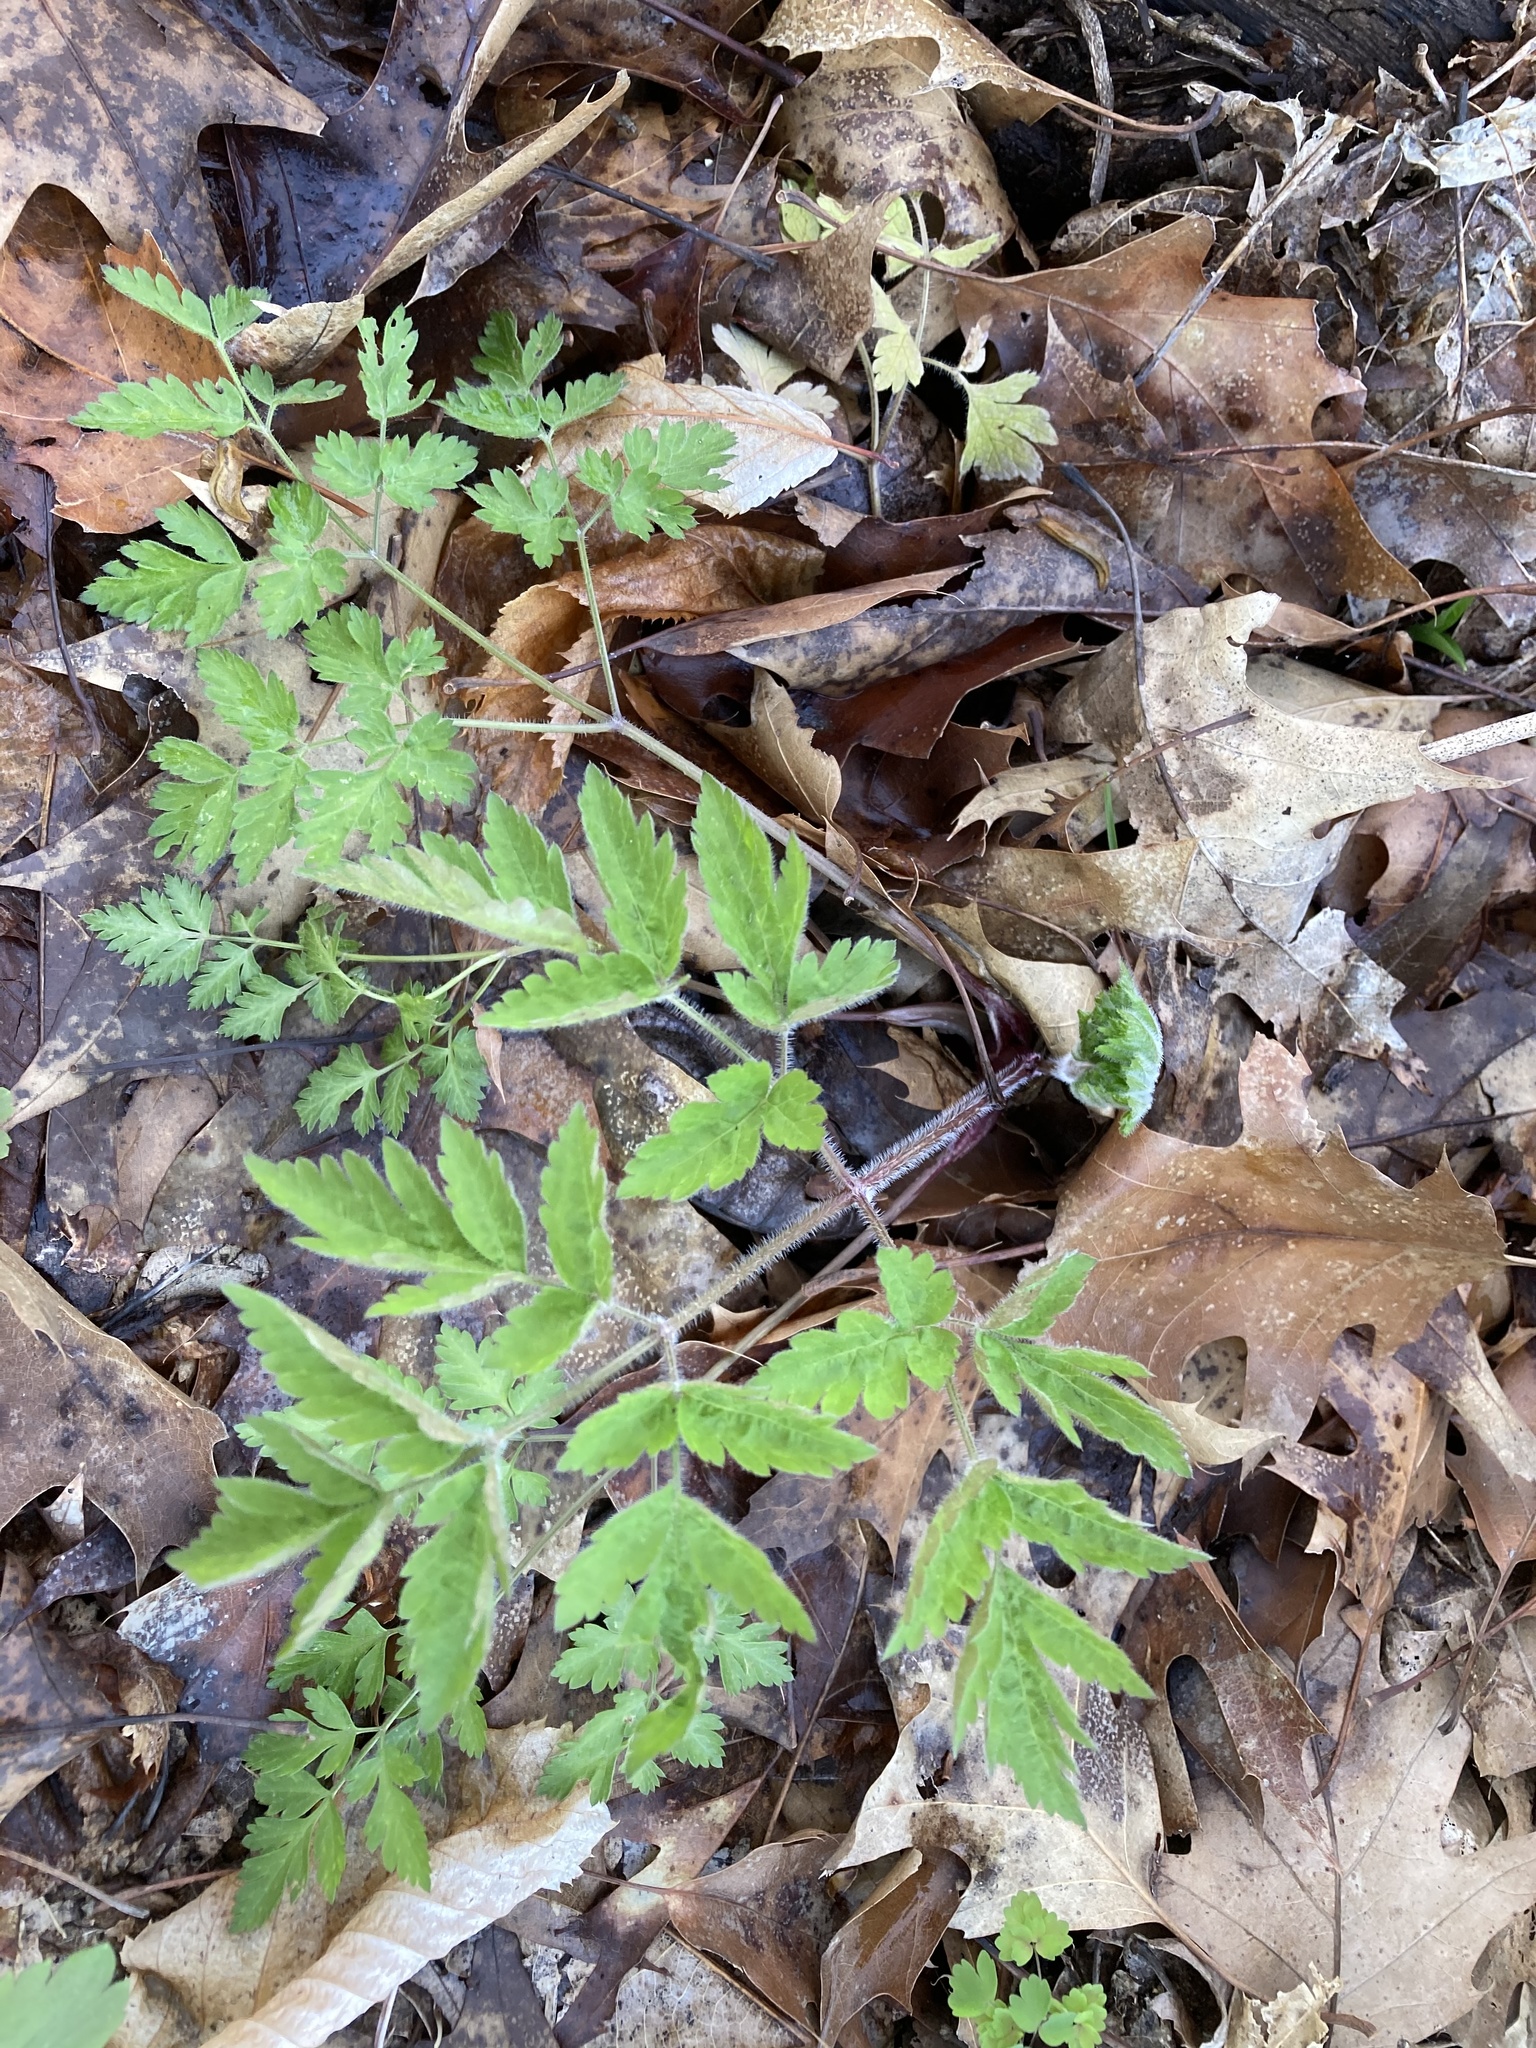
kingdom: Plantae
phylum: Tracheophyta
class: Magnoliopsida
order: Apiales
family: Apiaceae
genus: Osmorhiza
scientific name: Osmorhiza claytonii
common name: Hairy sweet cicely
